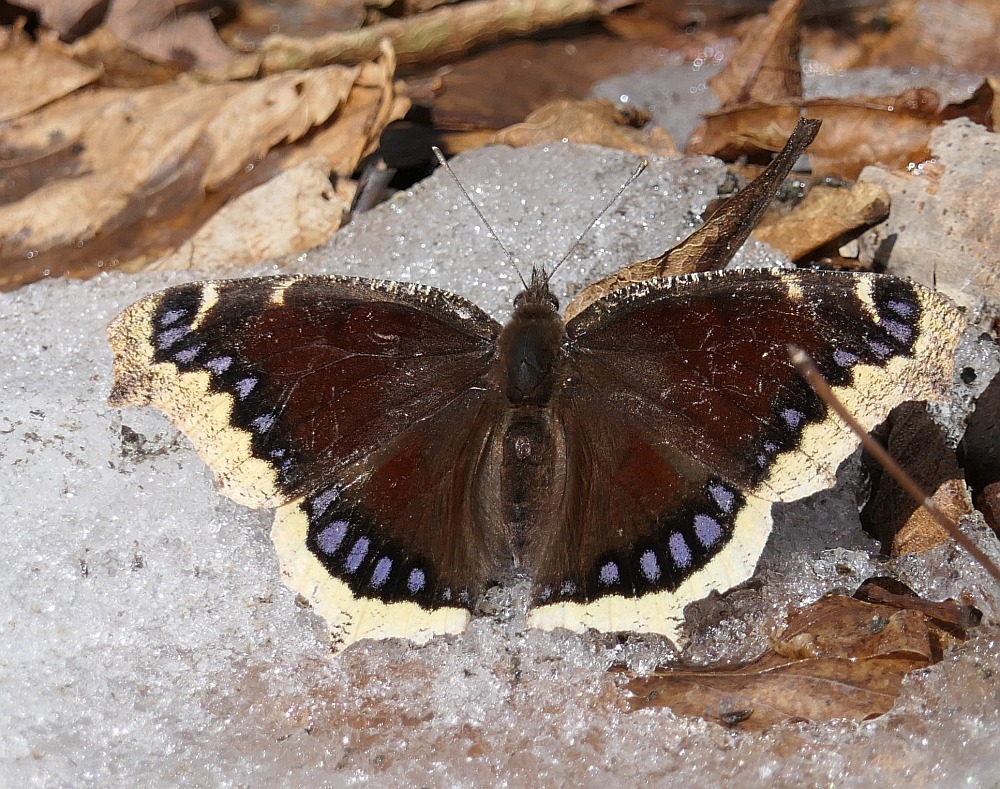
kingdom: Animalia
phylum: Arthropoda
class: Insecta
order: Lepidoptera
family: Nymphalidae
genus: Nymphalis
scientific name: Nymphalis antiopa
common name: Camberwell beauty
